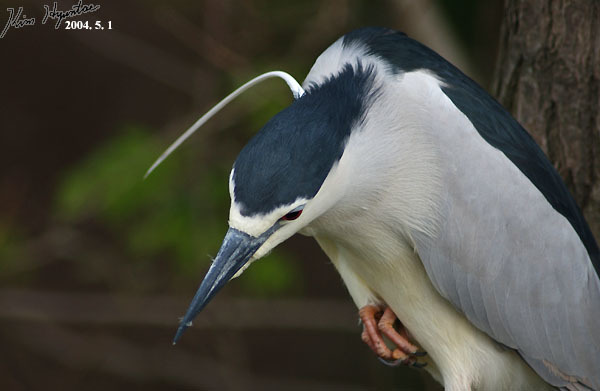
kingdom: Animalia
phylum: Chordata
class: Aves
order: Pelecaniformes
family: Ardeidae
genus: Nycticorax
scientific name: Nycticorax nycticorax
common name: Black-crowned night heron
